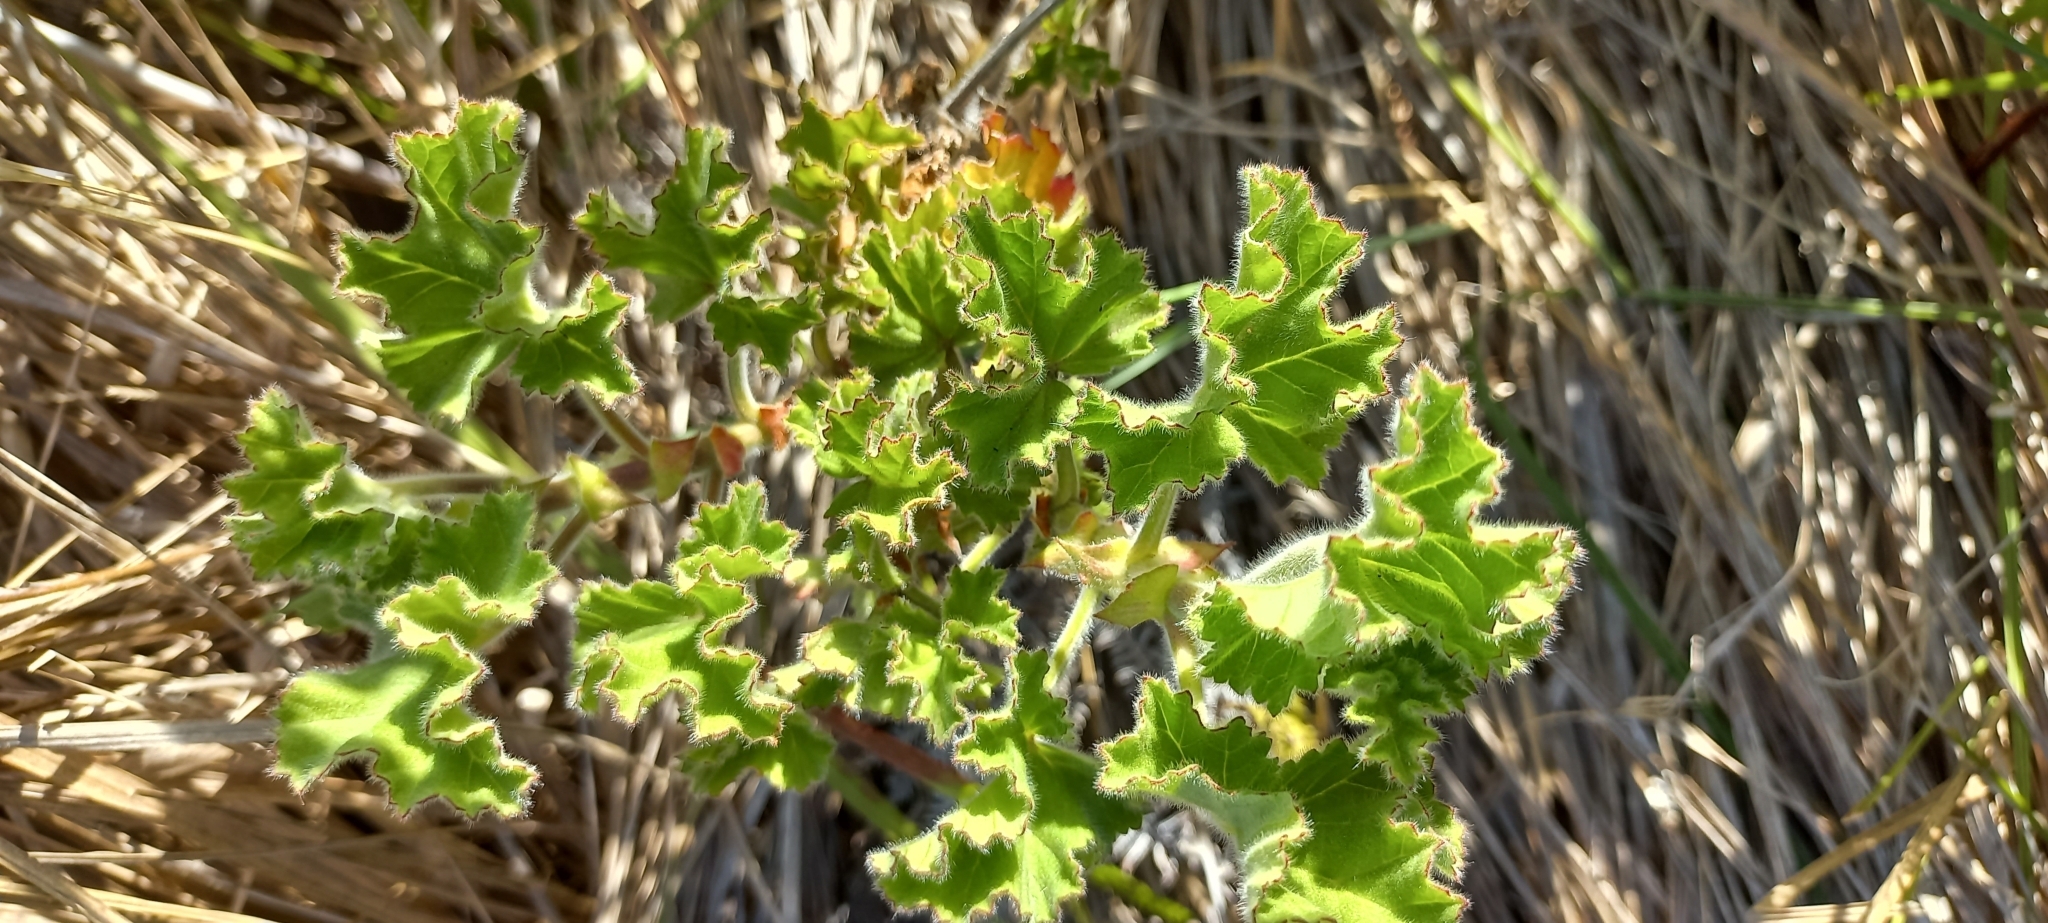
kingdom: Plantae
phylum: Tracheophyta
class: Magnoliopsida
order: Geraniales
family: Geraniaceae
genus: Pelargonium
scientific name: Pelargonium capitatum
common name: Rose scented geranium
